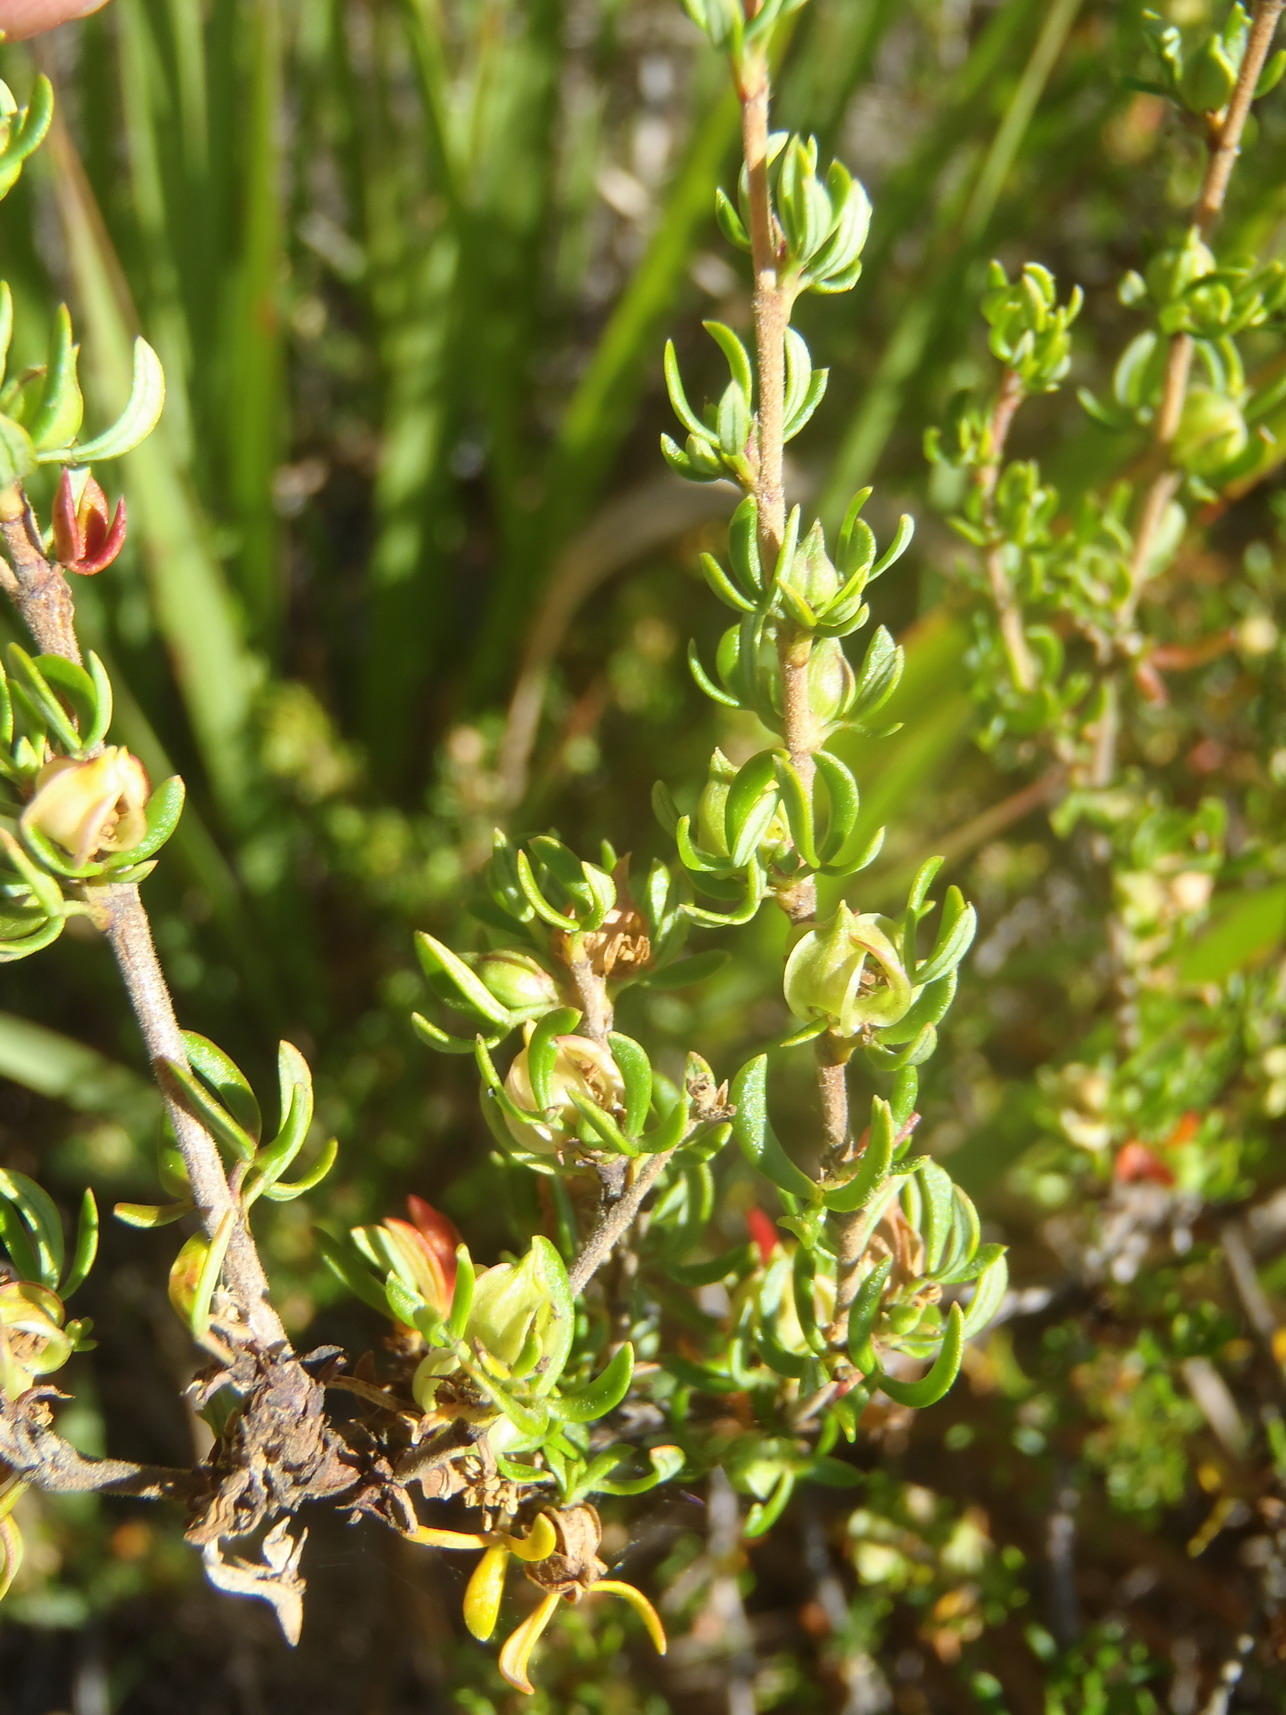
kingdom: Plantae
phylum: Tracheophyta
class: Magnoliopsida
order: Rosales
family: Rosaceae
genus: Cliffortia
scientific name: Cliffortia falcata
